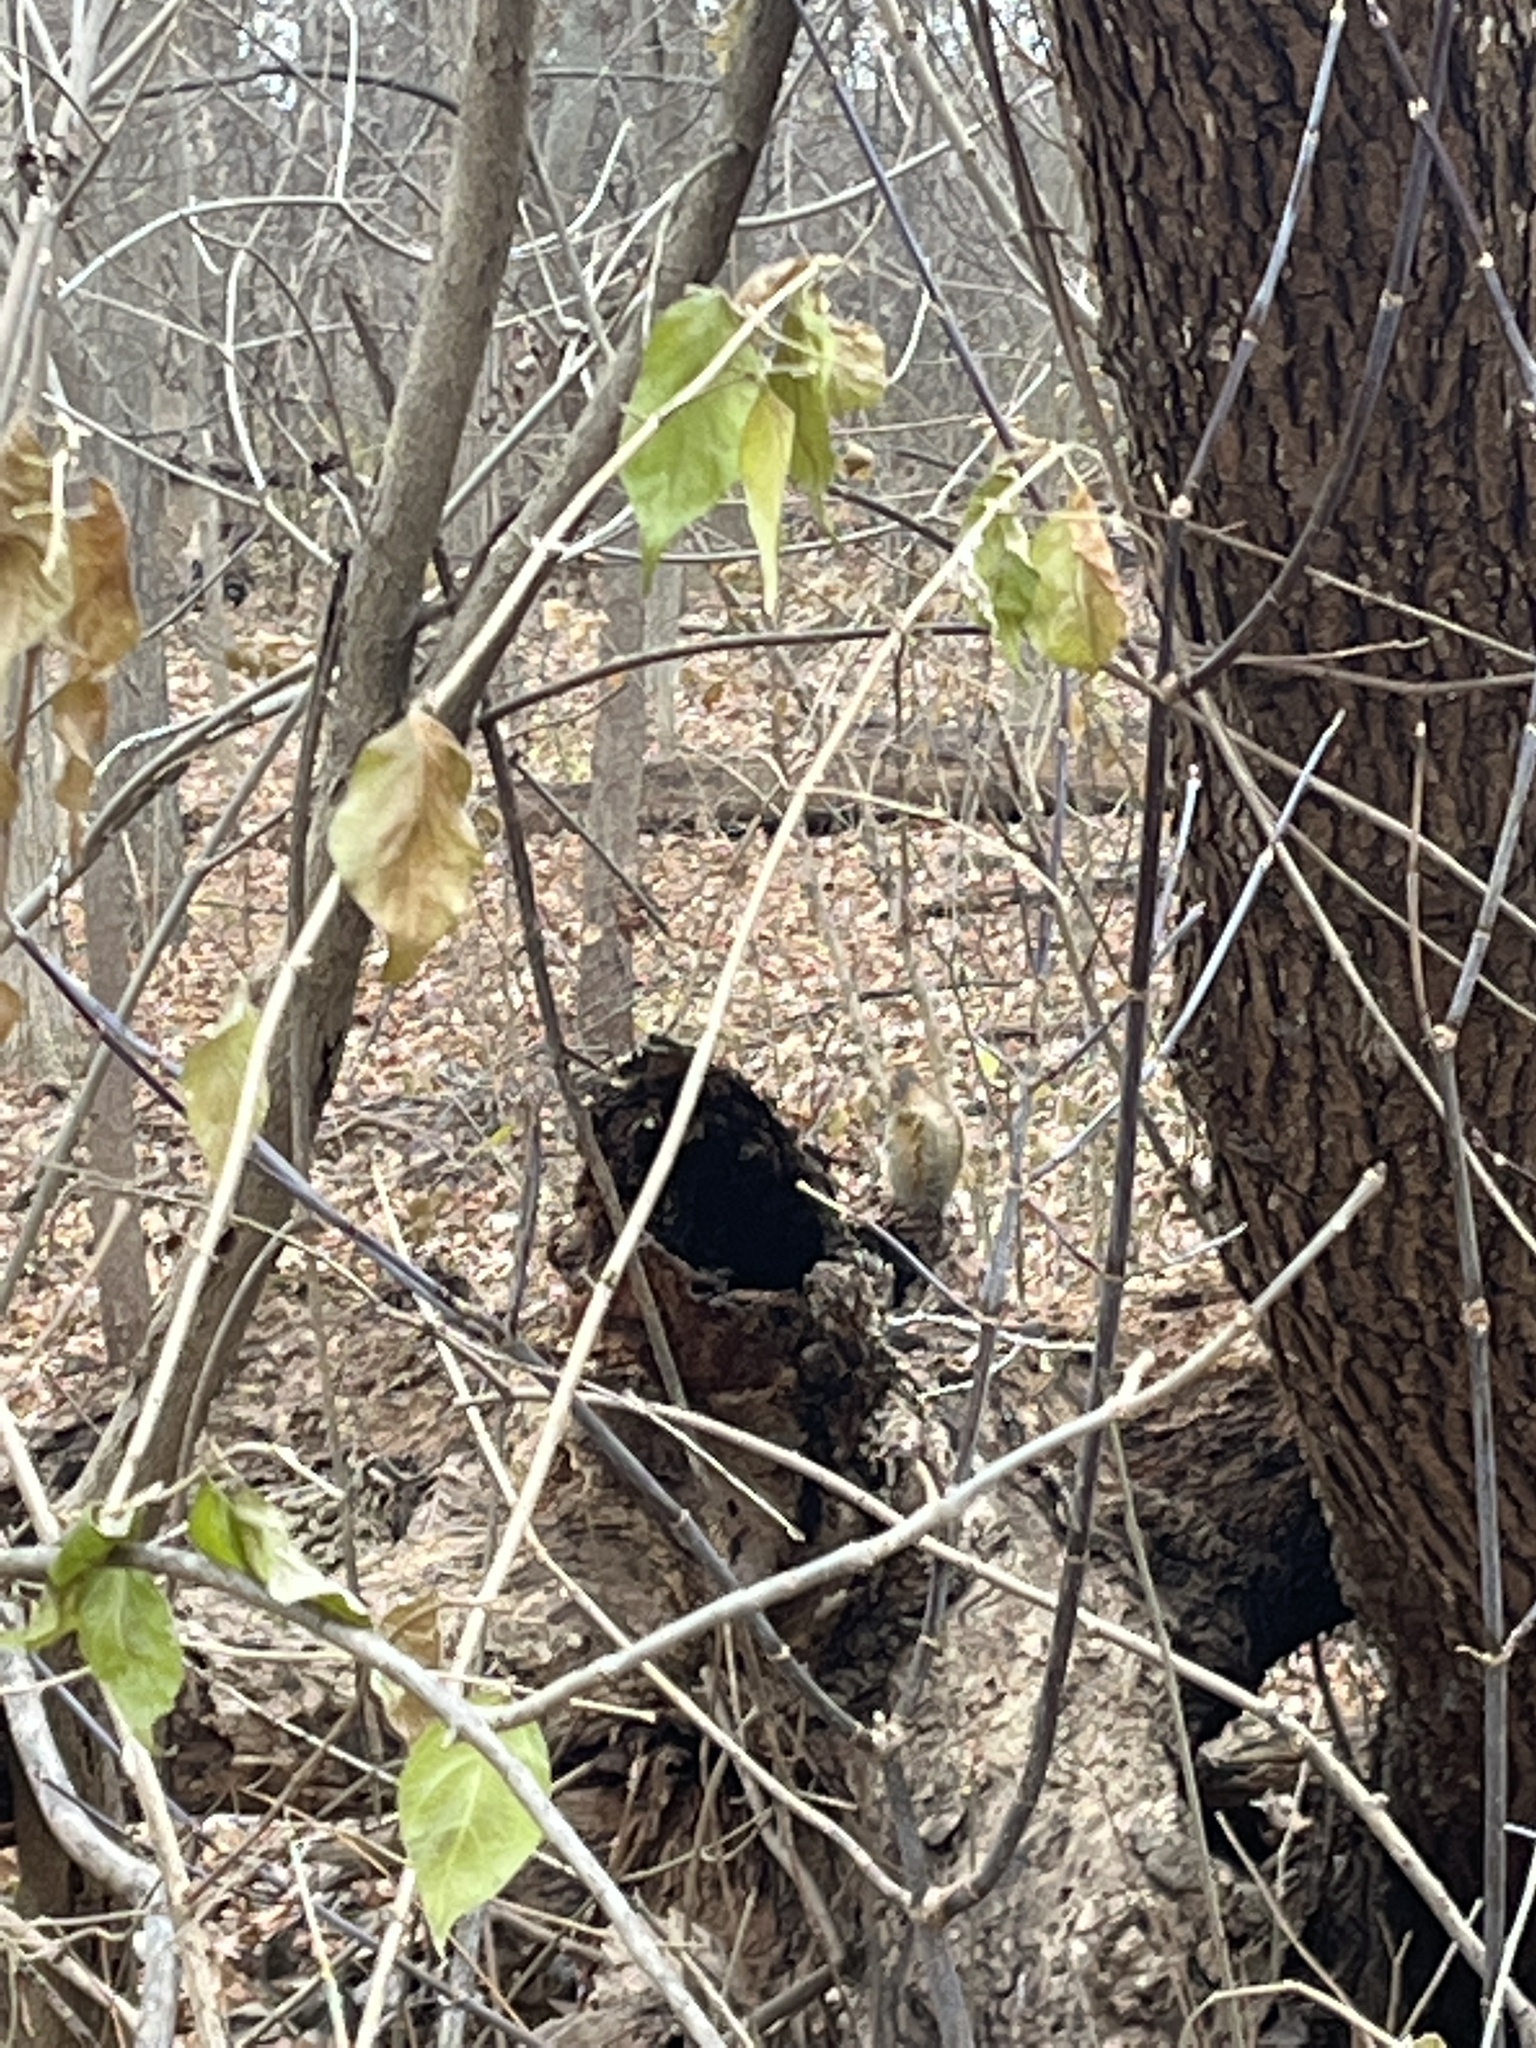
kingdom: Animalia
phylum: Chordata
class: Mammalia
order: Rodentia
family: Sciuridae
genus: Tamiasciurus
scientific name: Tamiasciurus hudsonicus
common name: Red squirrel
